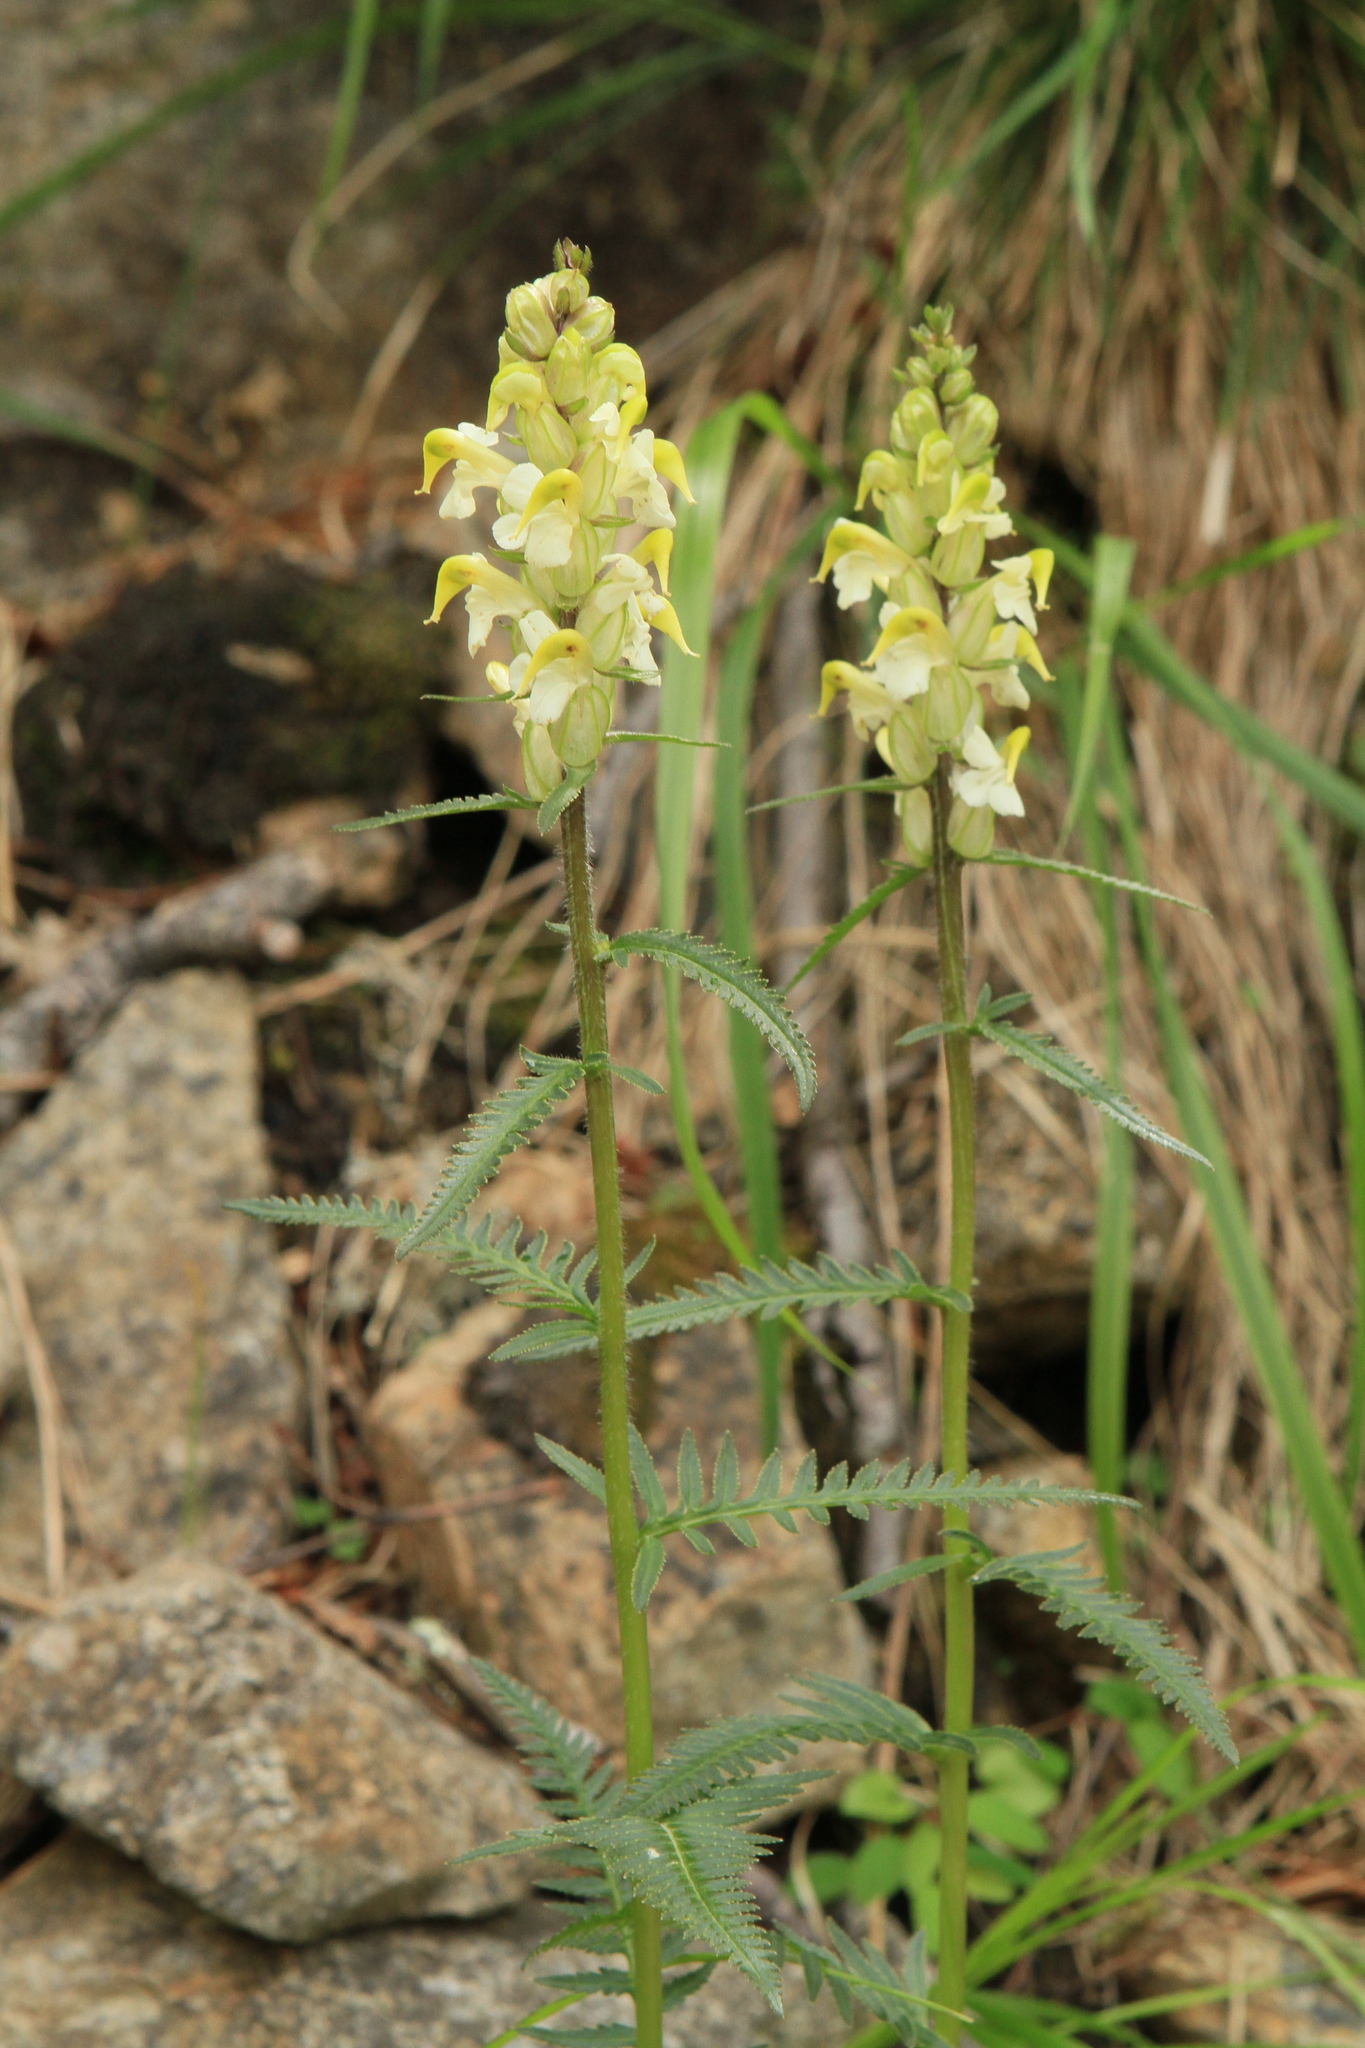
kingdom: Plantae
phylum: Tracheophyta
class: Magnoliopsida
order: Lamiales
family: Orobanchaceae
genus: Pedicularis
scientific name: Pedicularis compacta
